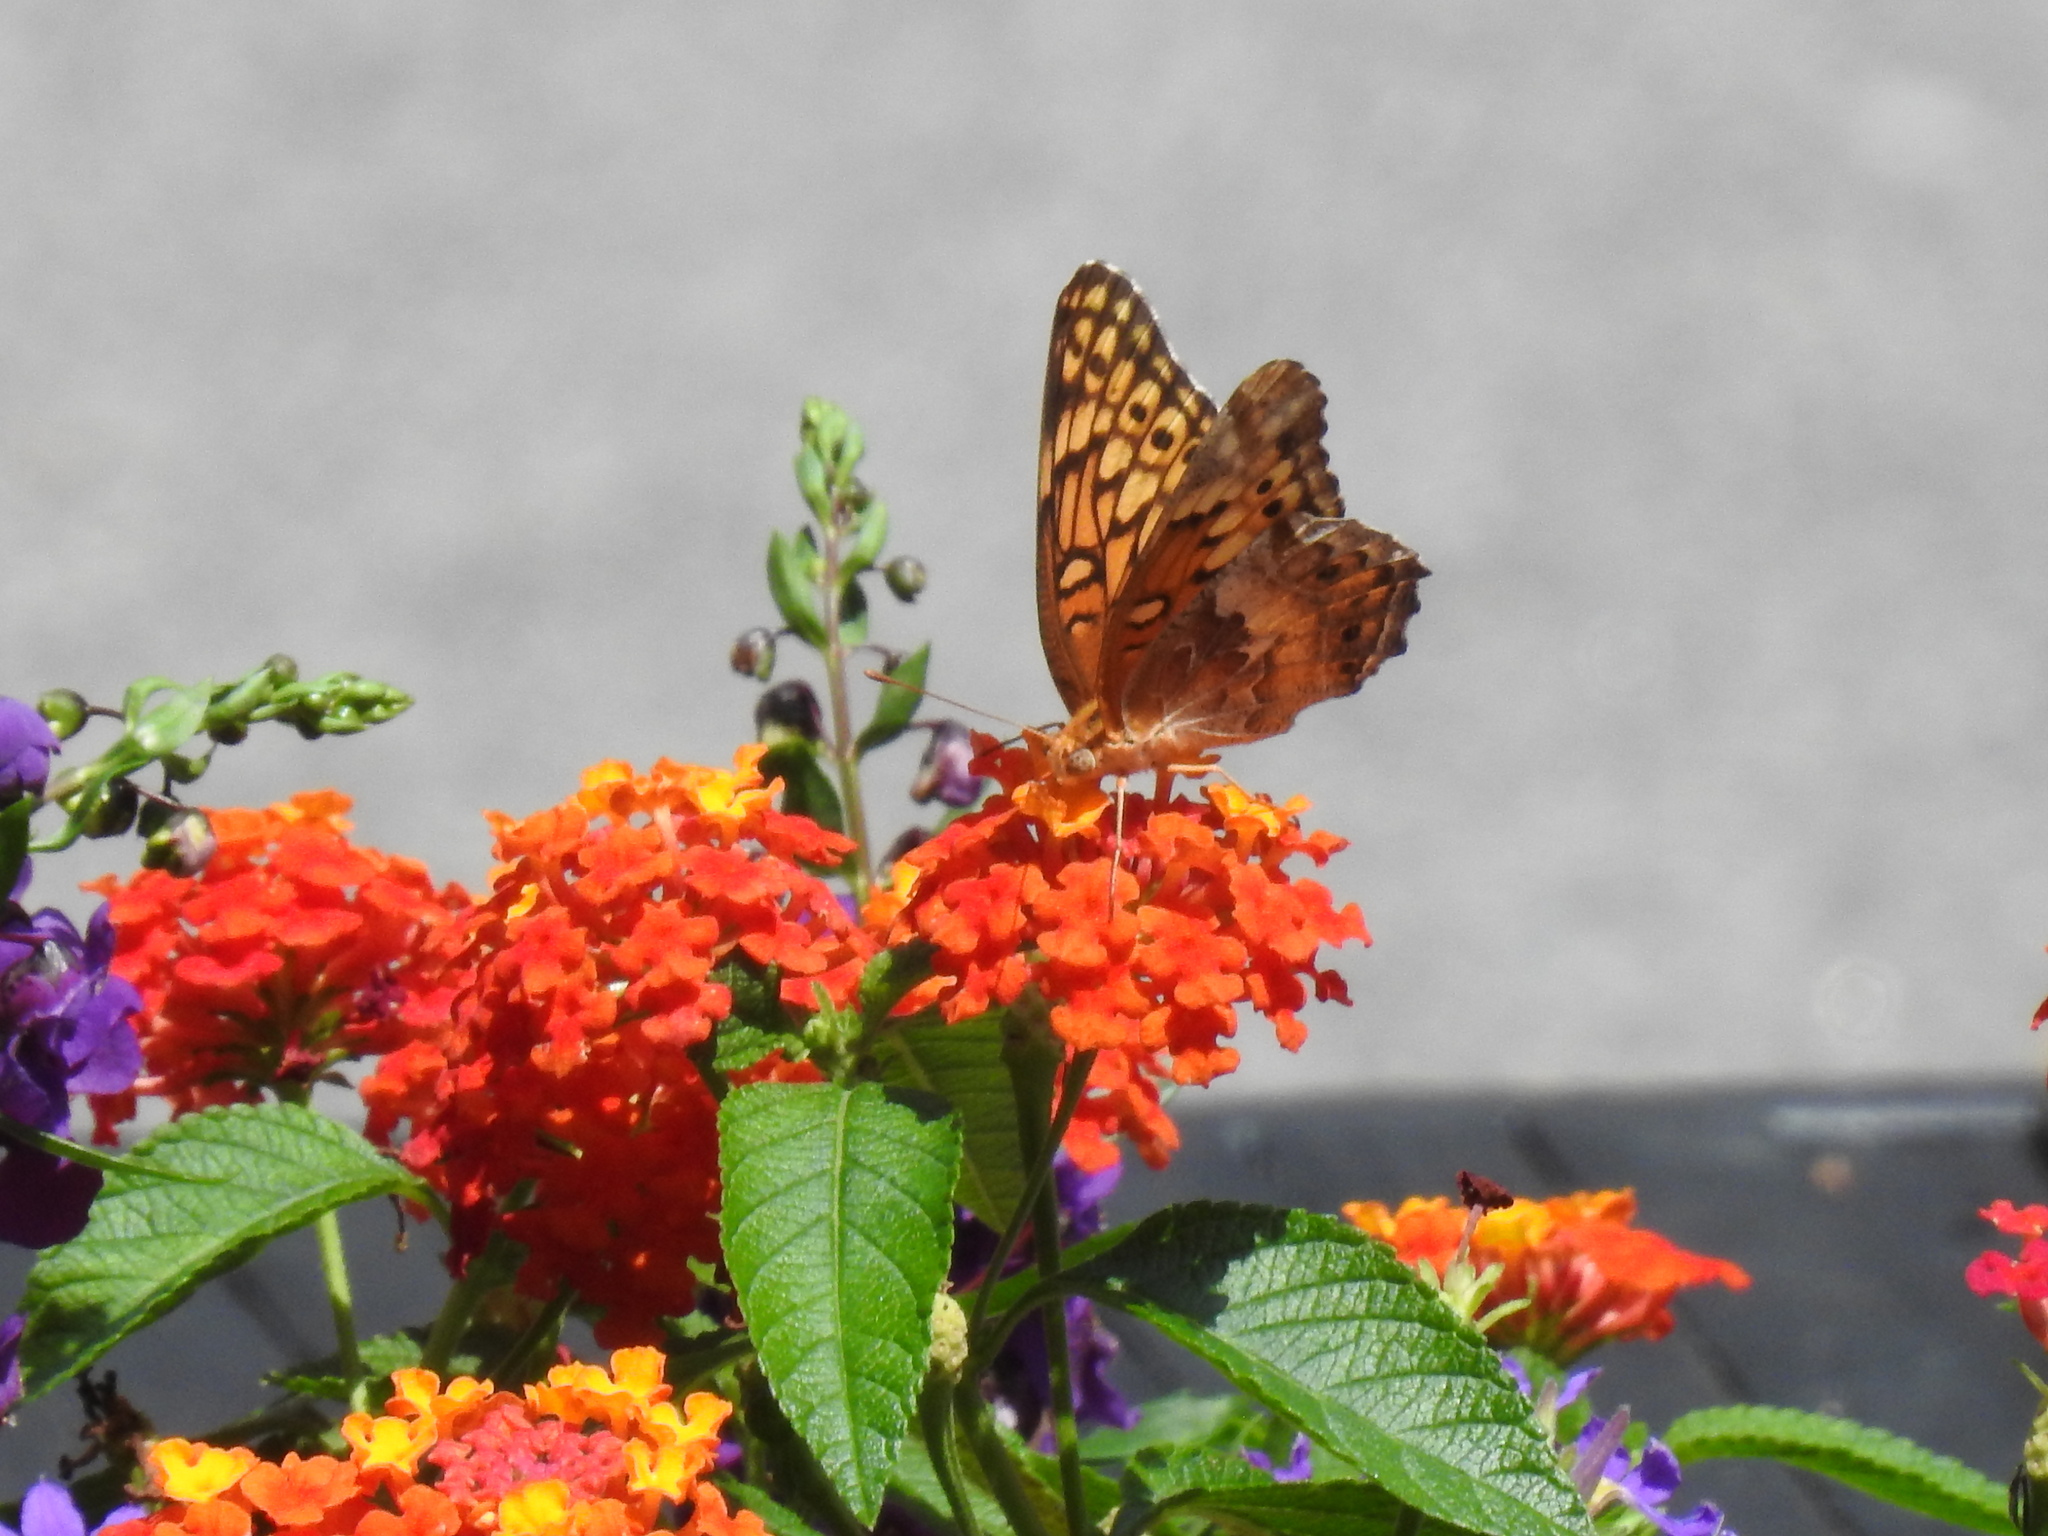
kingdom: Animalia
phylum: Arthropoda
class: Insecta
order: Lepidoptera
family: Nymphalidae
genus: Euptoieta
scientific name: Euptoieta claudia
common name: Variegated fritillary
